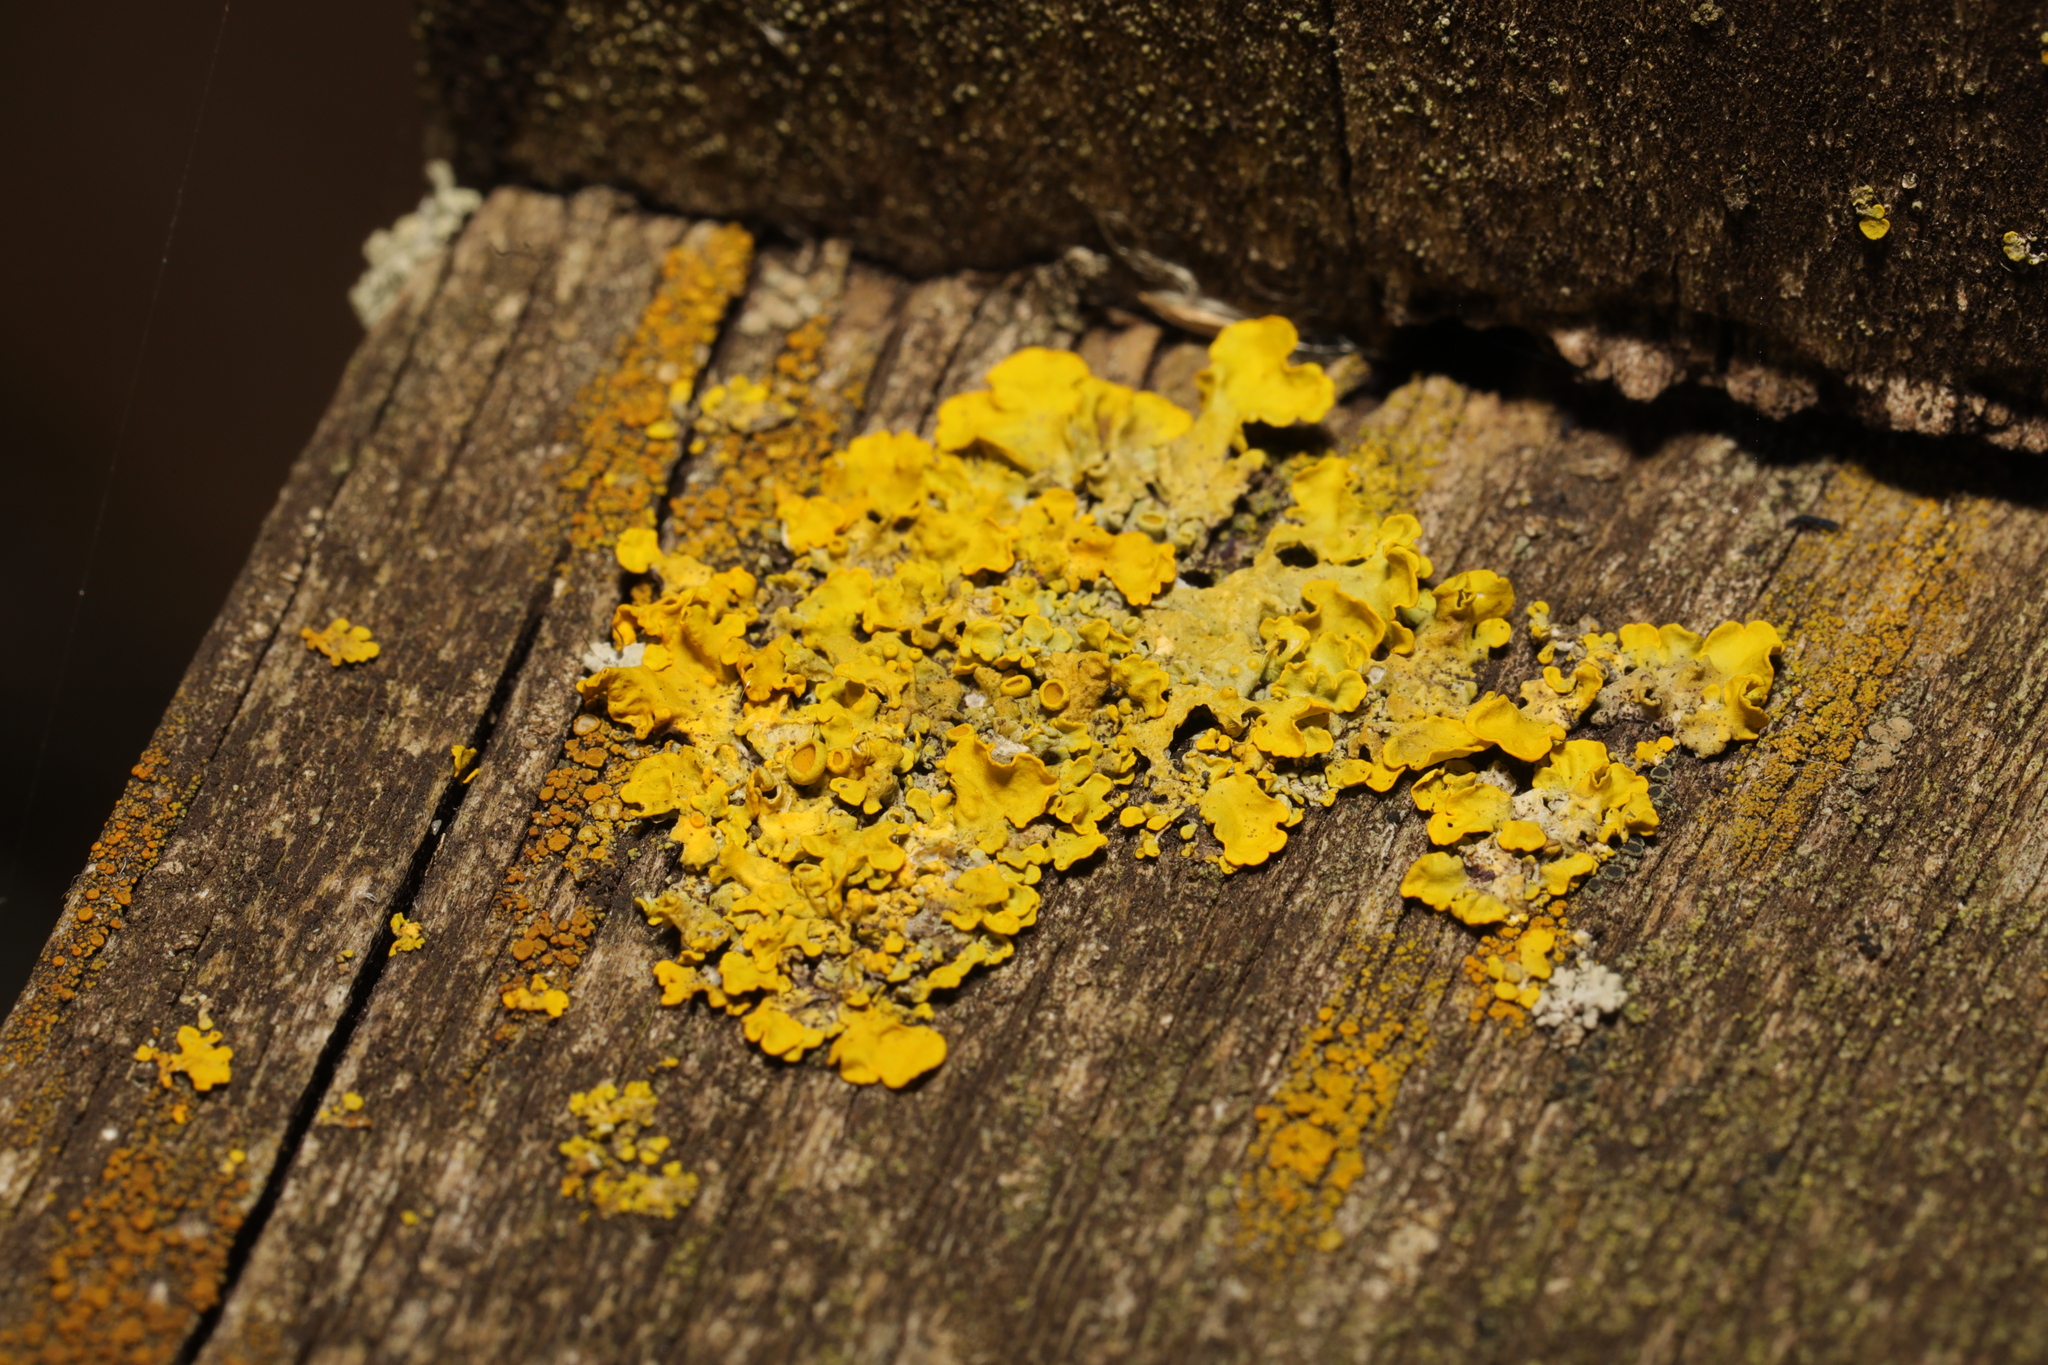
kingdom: Fungi
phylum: Ascomycota
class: Lecanoromycetes
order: Teloschistales
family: Teloschistaceae
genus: Xanthoria
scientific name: Xanthoria parietina
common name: Common orange lichen
